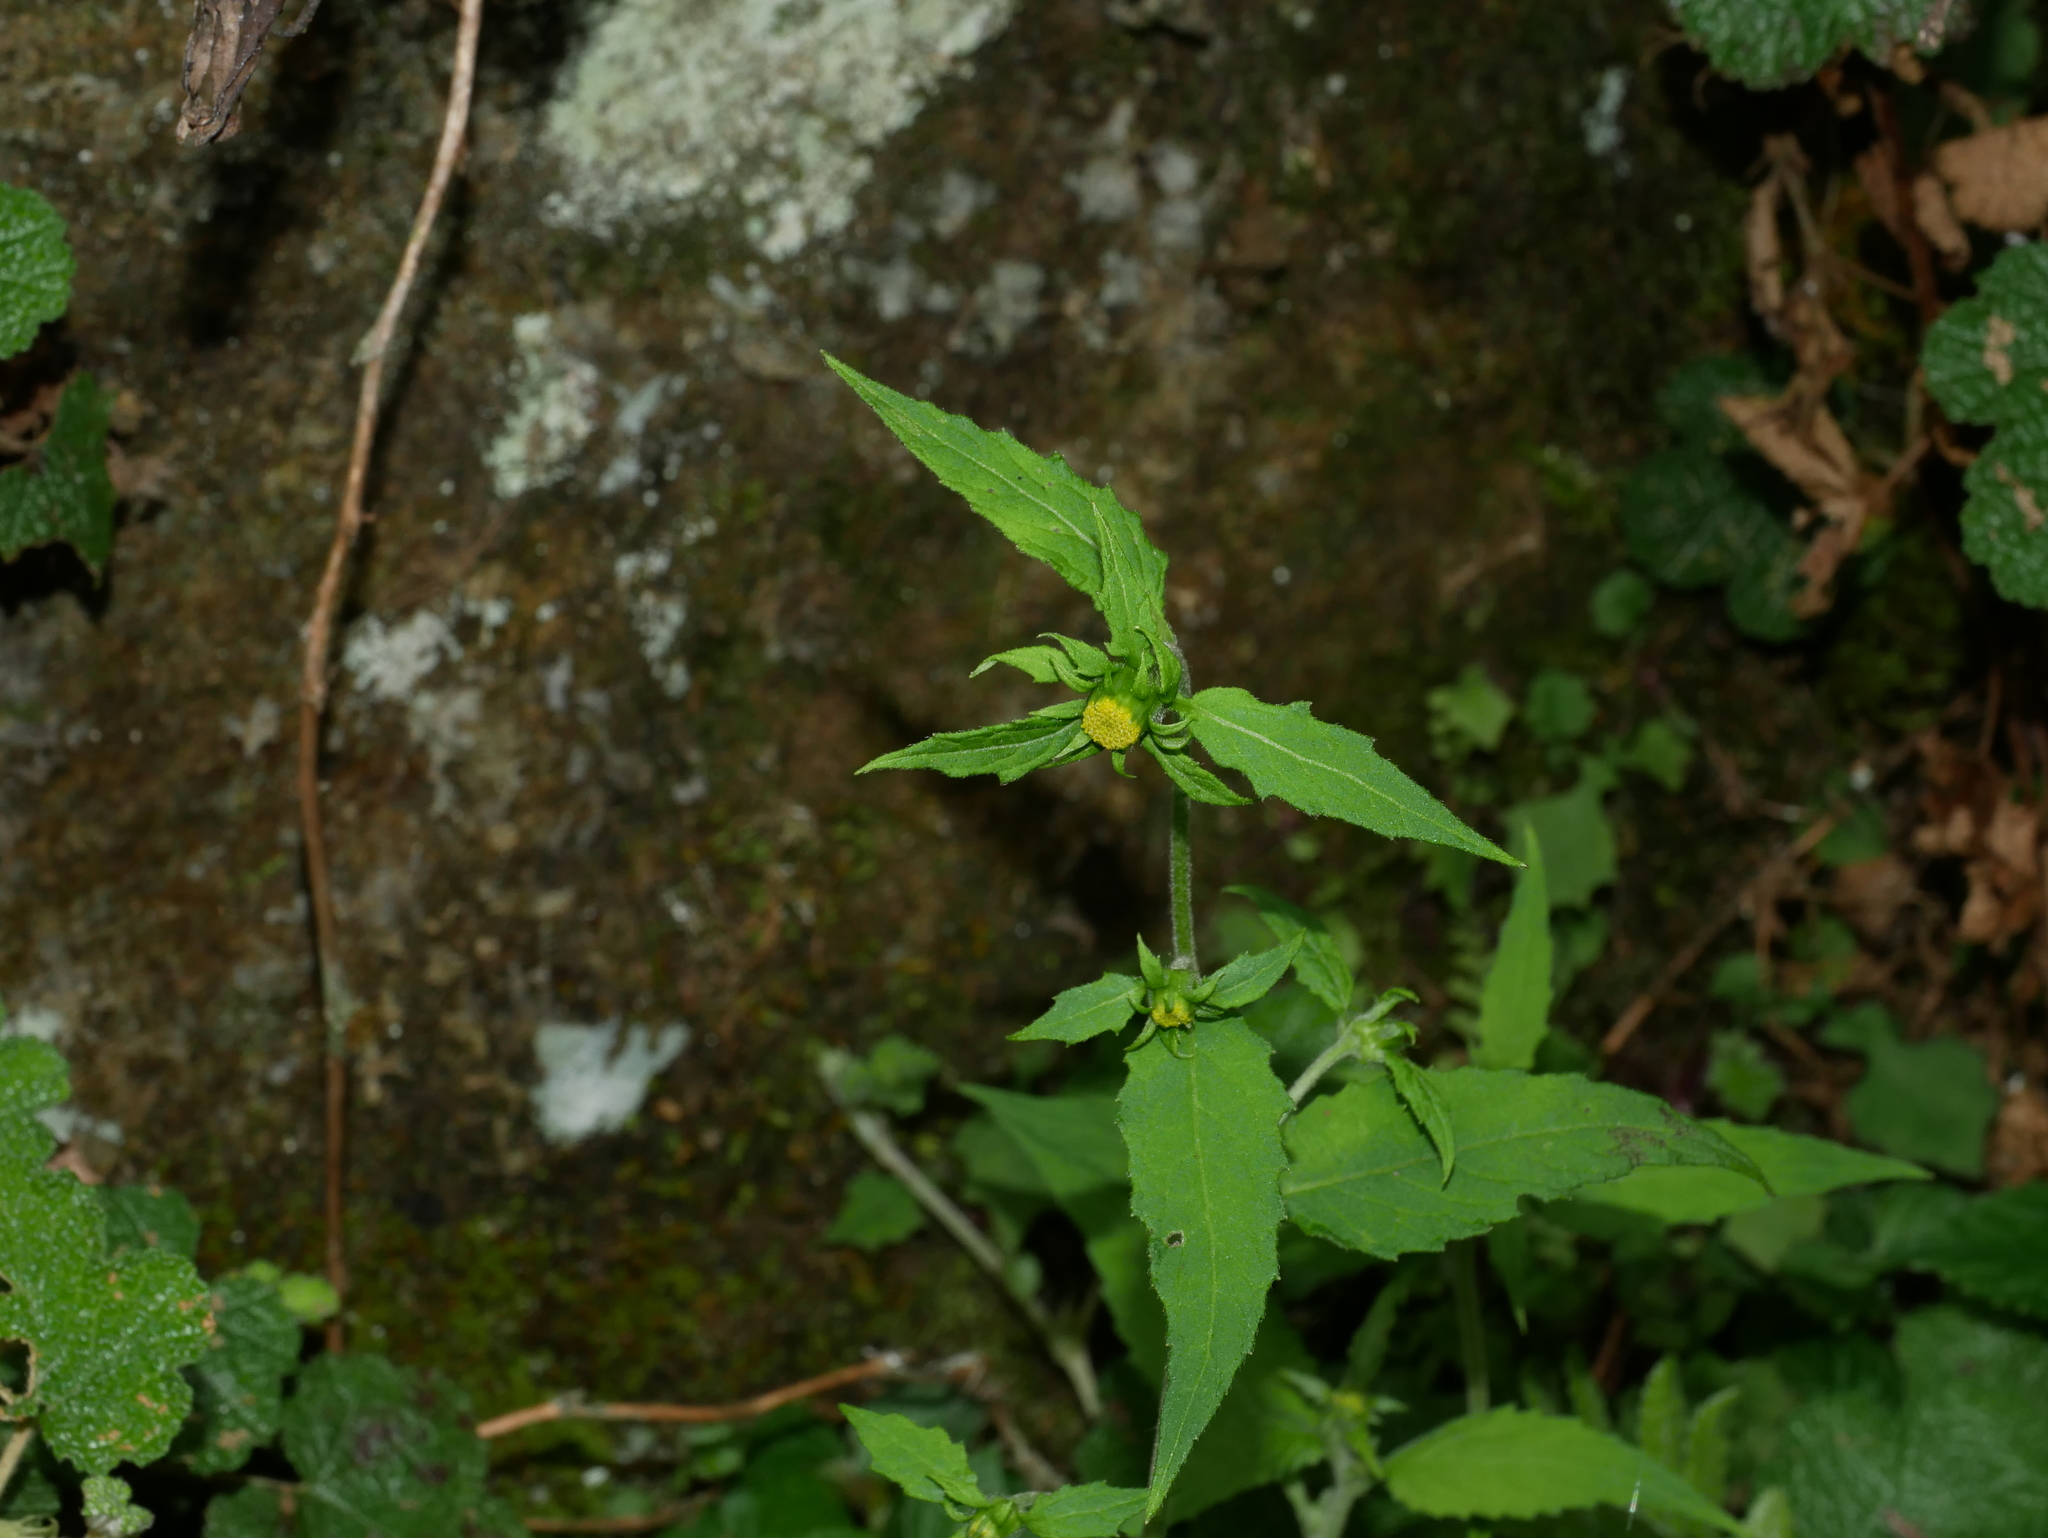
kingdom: Plantae
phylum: Tracheophyta
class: Magnoliopsida
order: Asterales
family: Asteraceae
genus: Carpesium
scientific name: Carpesium nepalense
